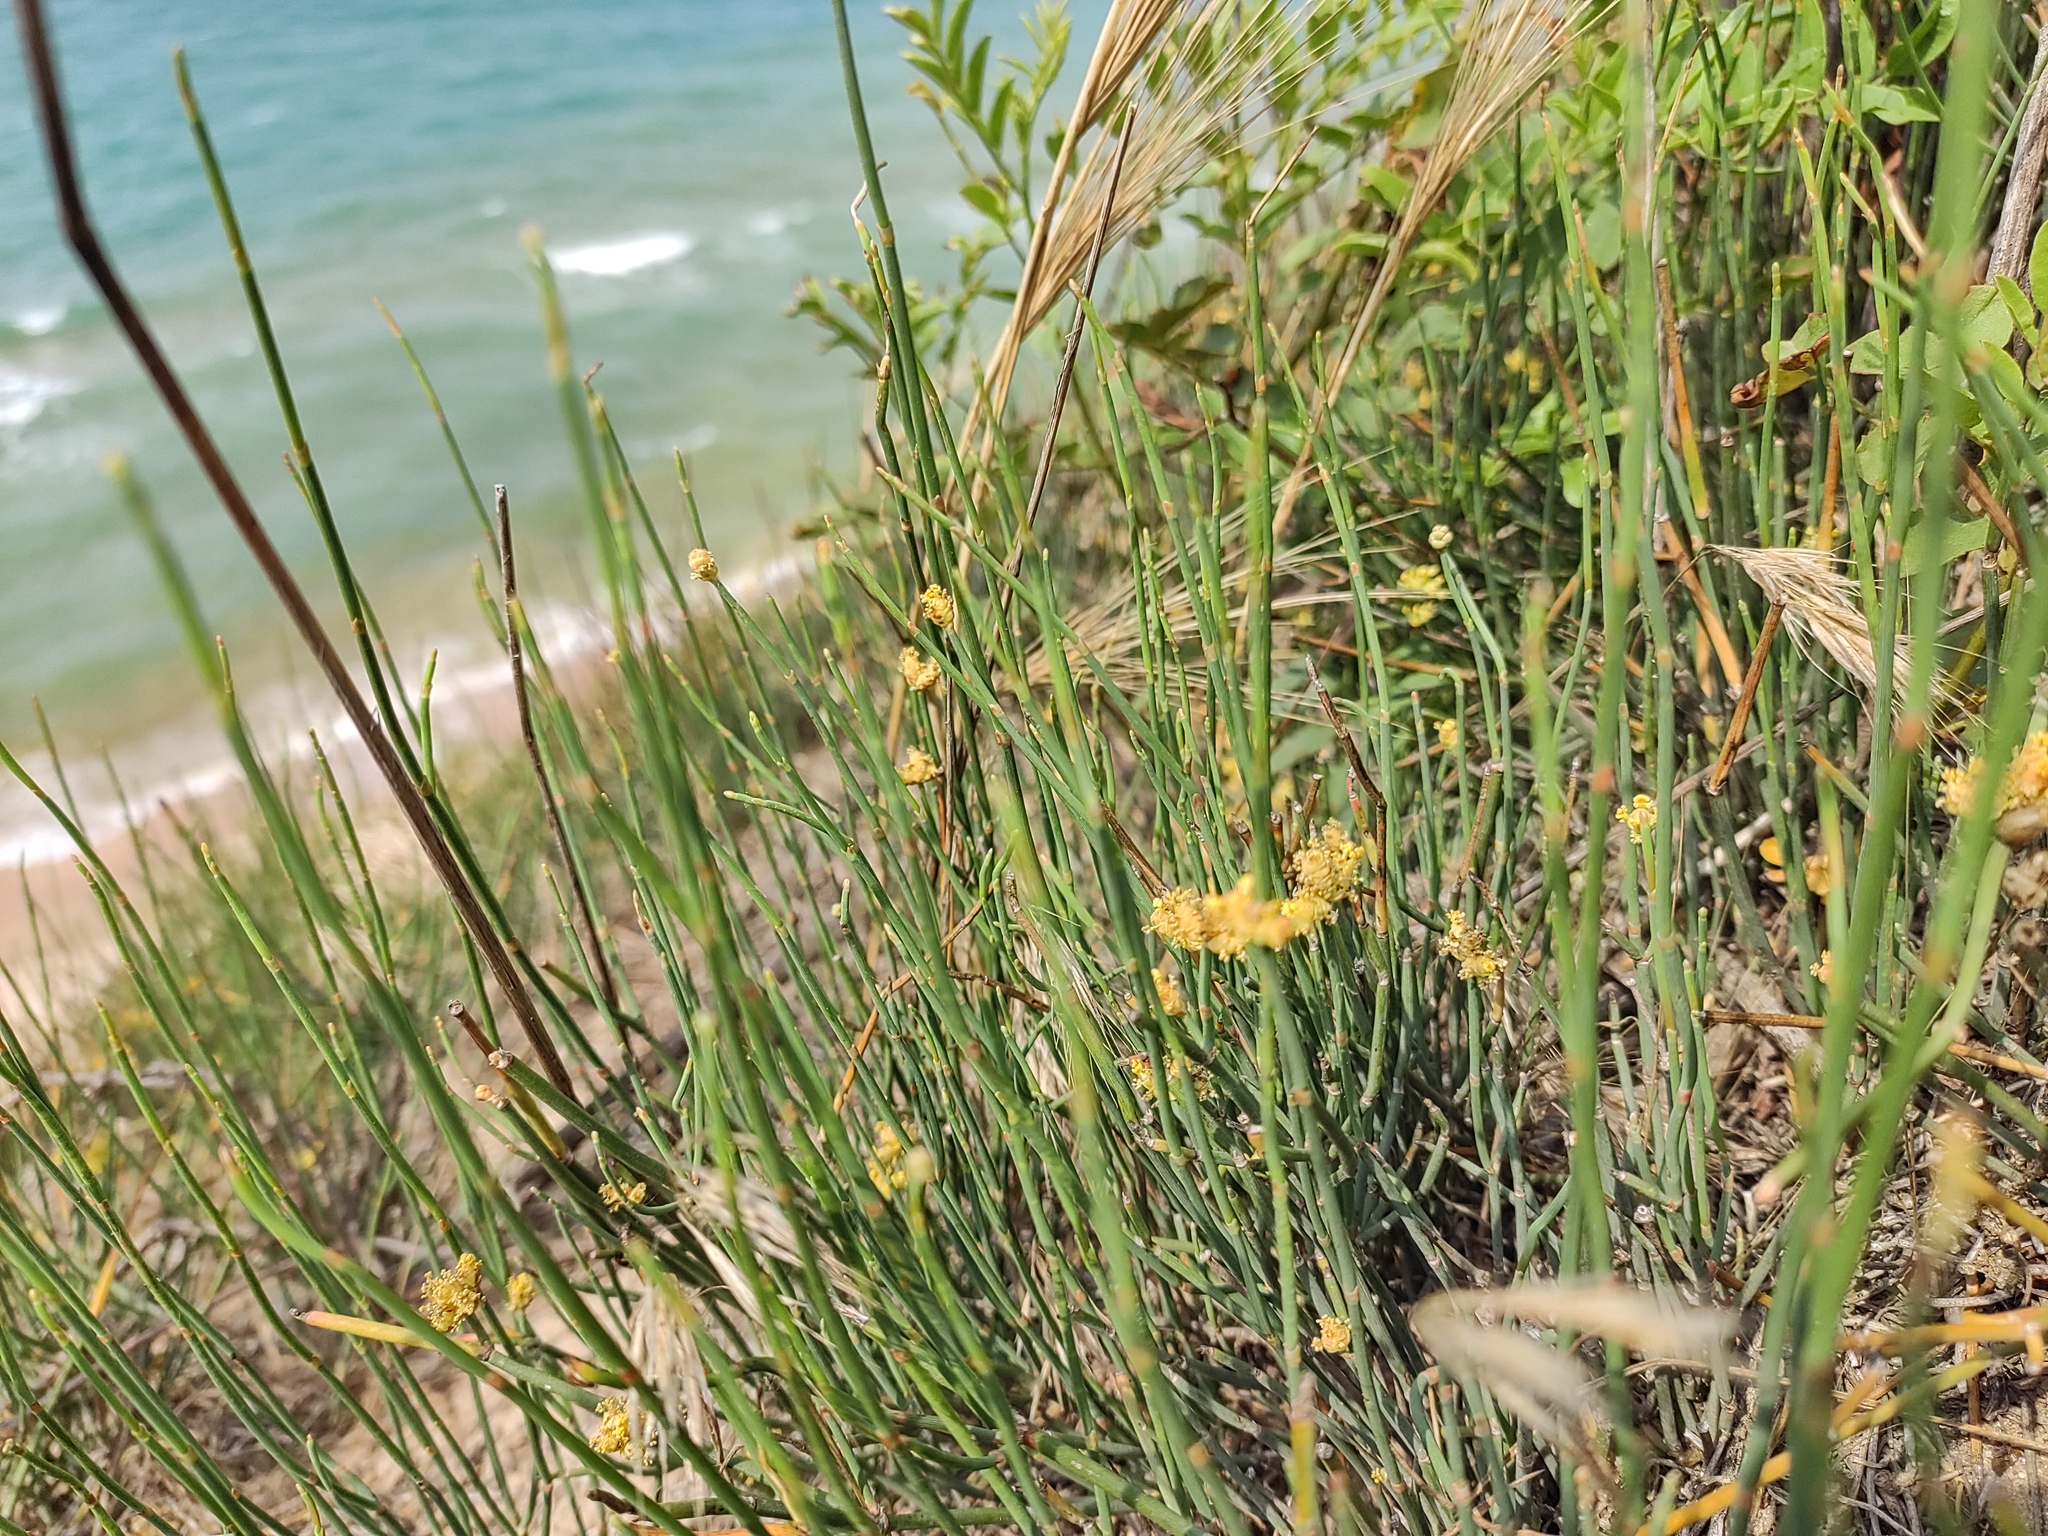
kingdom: Plantae
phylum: Tracheophyta
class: Gnetopsida
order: Ephedrales
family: Ephedraceae
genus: Ephedra
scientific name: Ephedra distachya
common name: Sea grape
